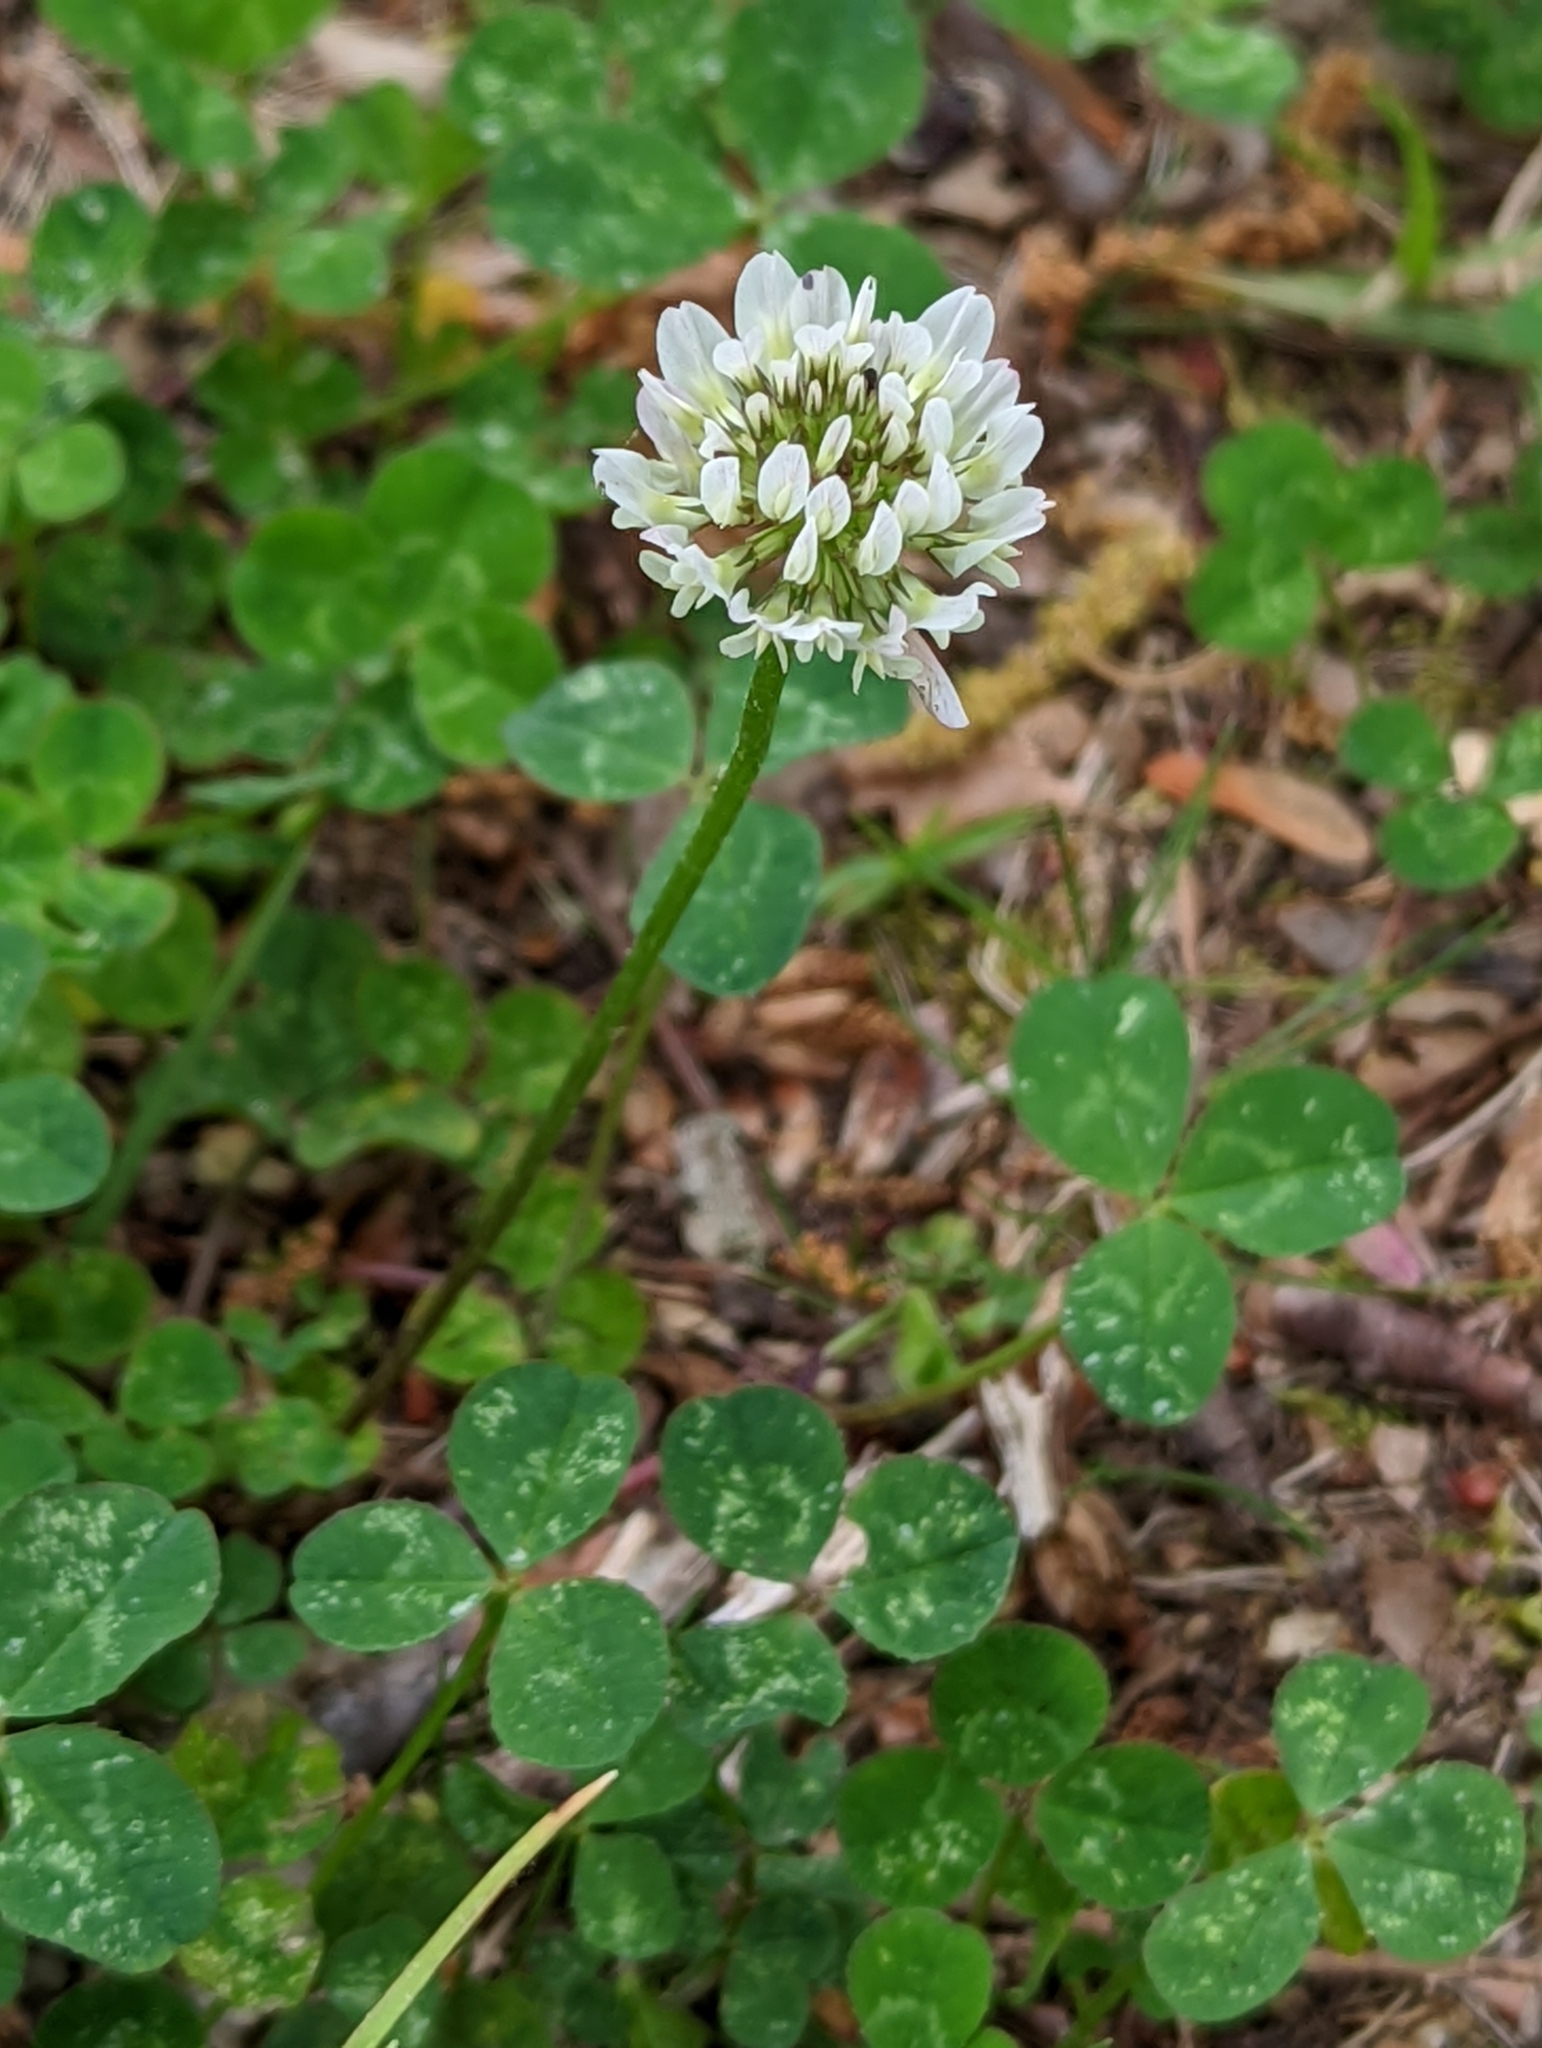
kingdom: Plantae
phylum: Tracheophyta
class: Magnoliopsida
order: Fabales
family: Fabaceae
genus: Trifolium
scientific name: Trifolium repens
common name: White clover
